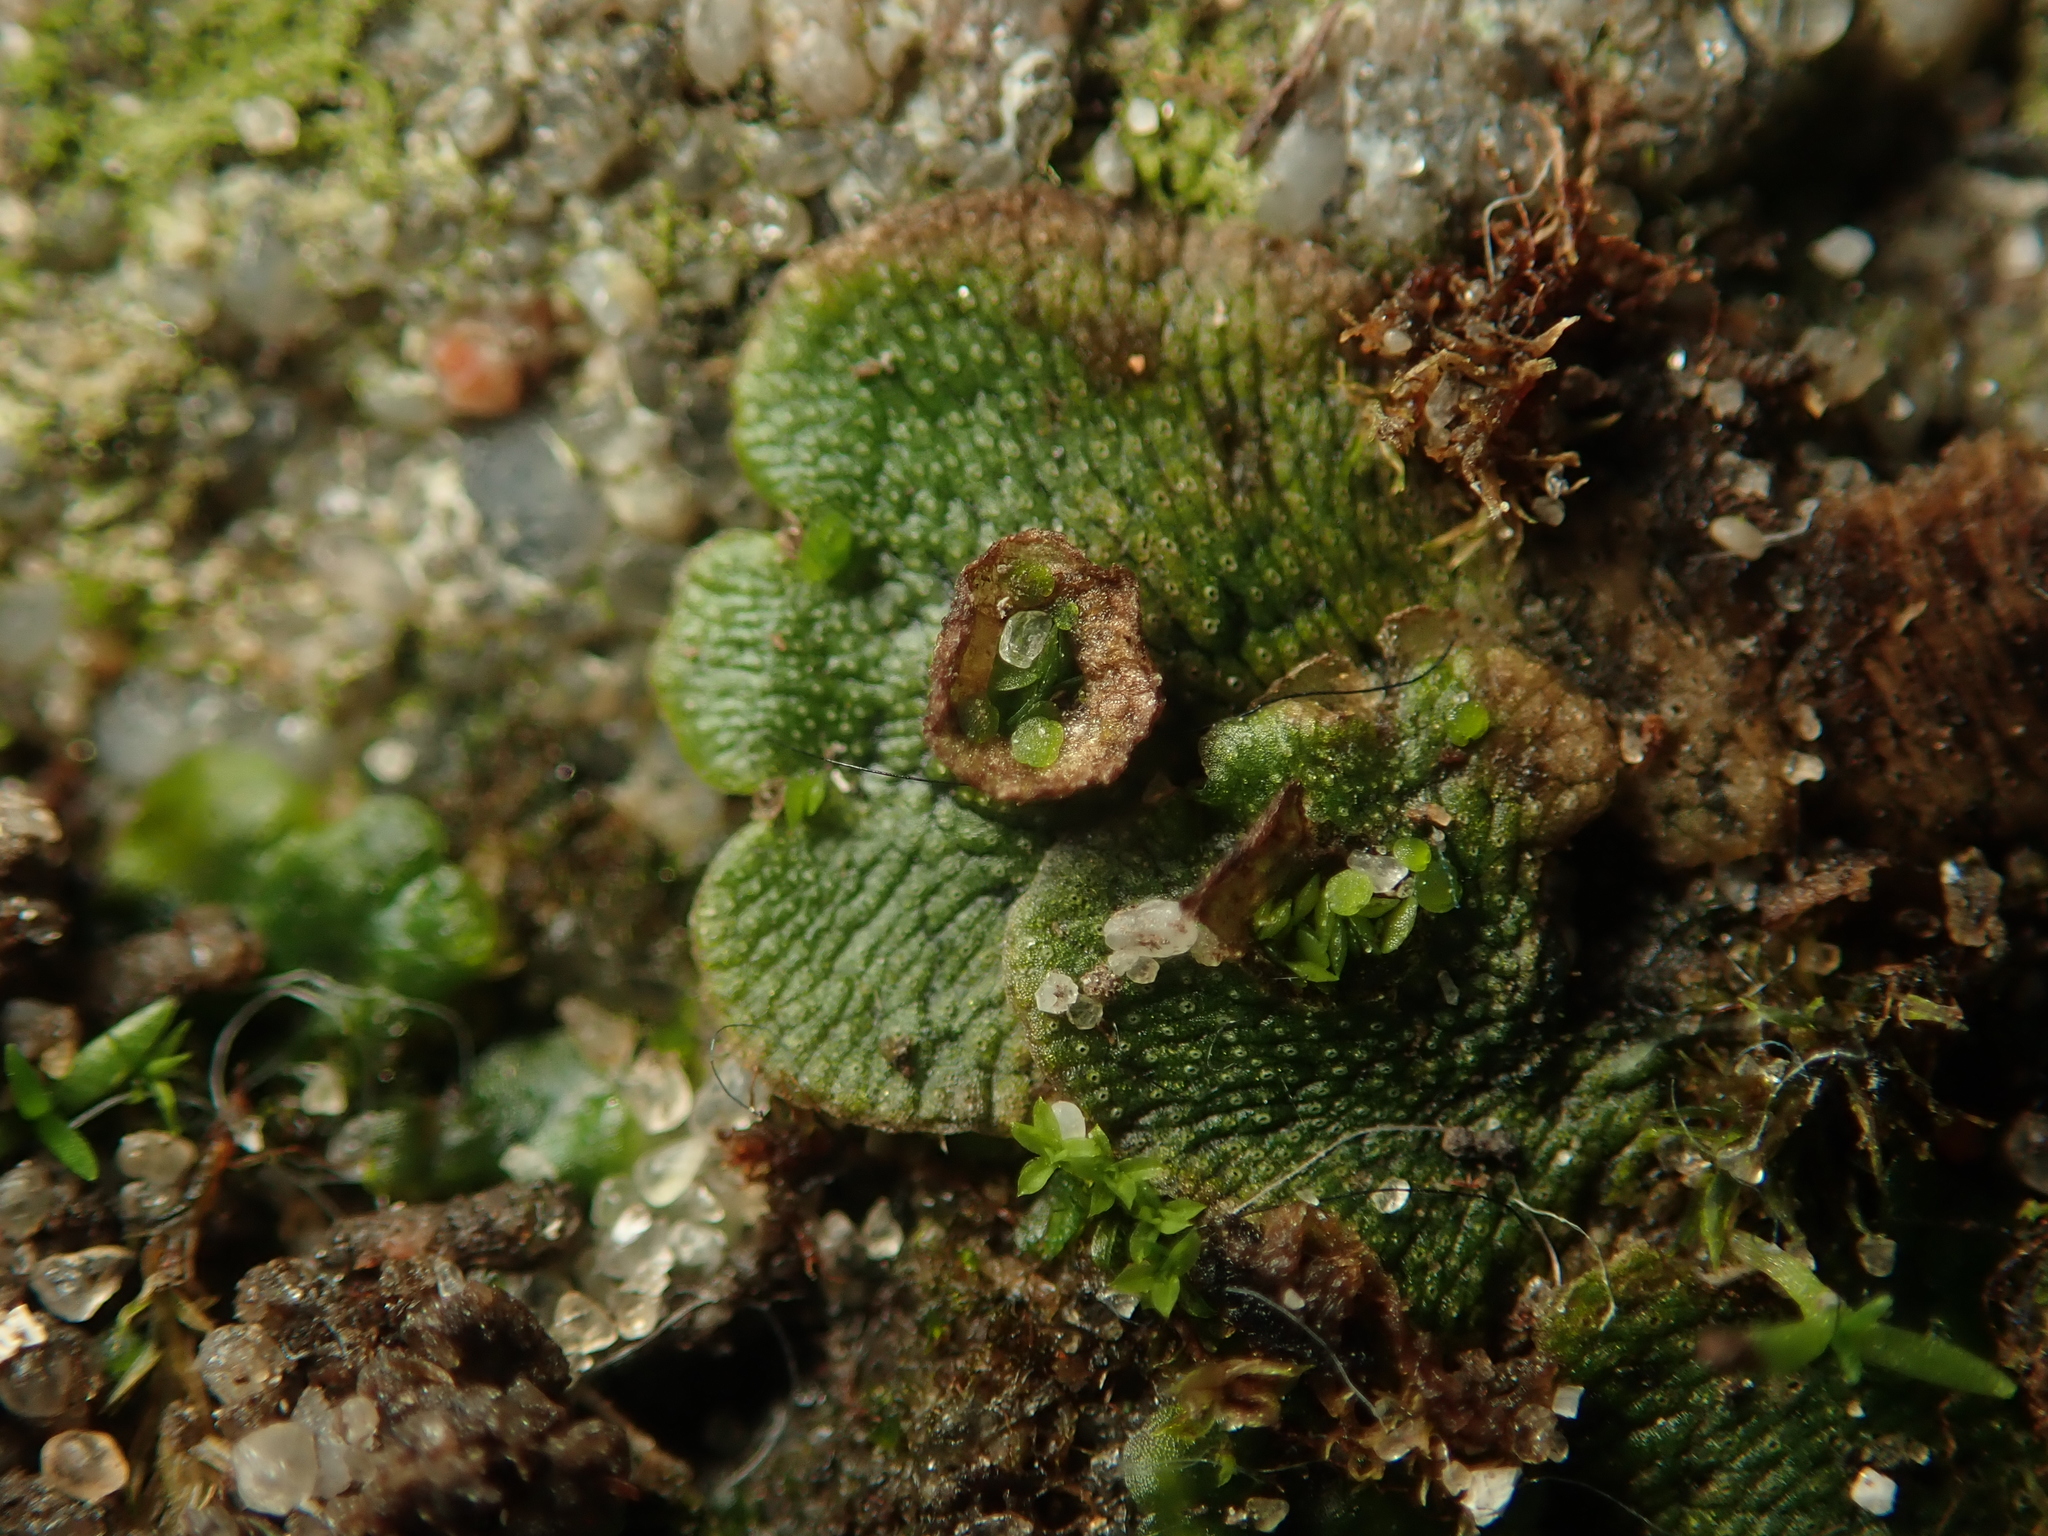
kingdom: Plantae
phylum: Marchantiophyta
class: Marchantiopsida
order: Marchantiales
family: Marchantiaceae
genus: Marchantia
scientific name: Marchantia polymorpha
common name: Common liverwort
